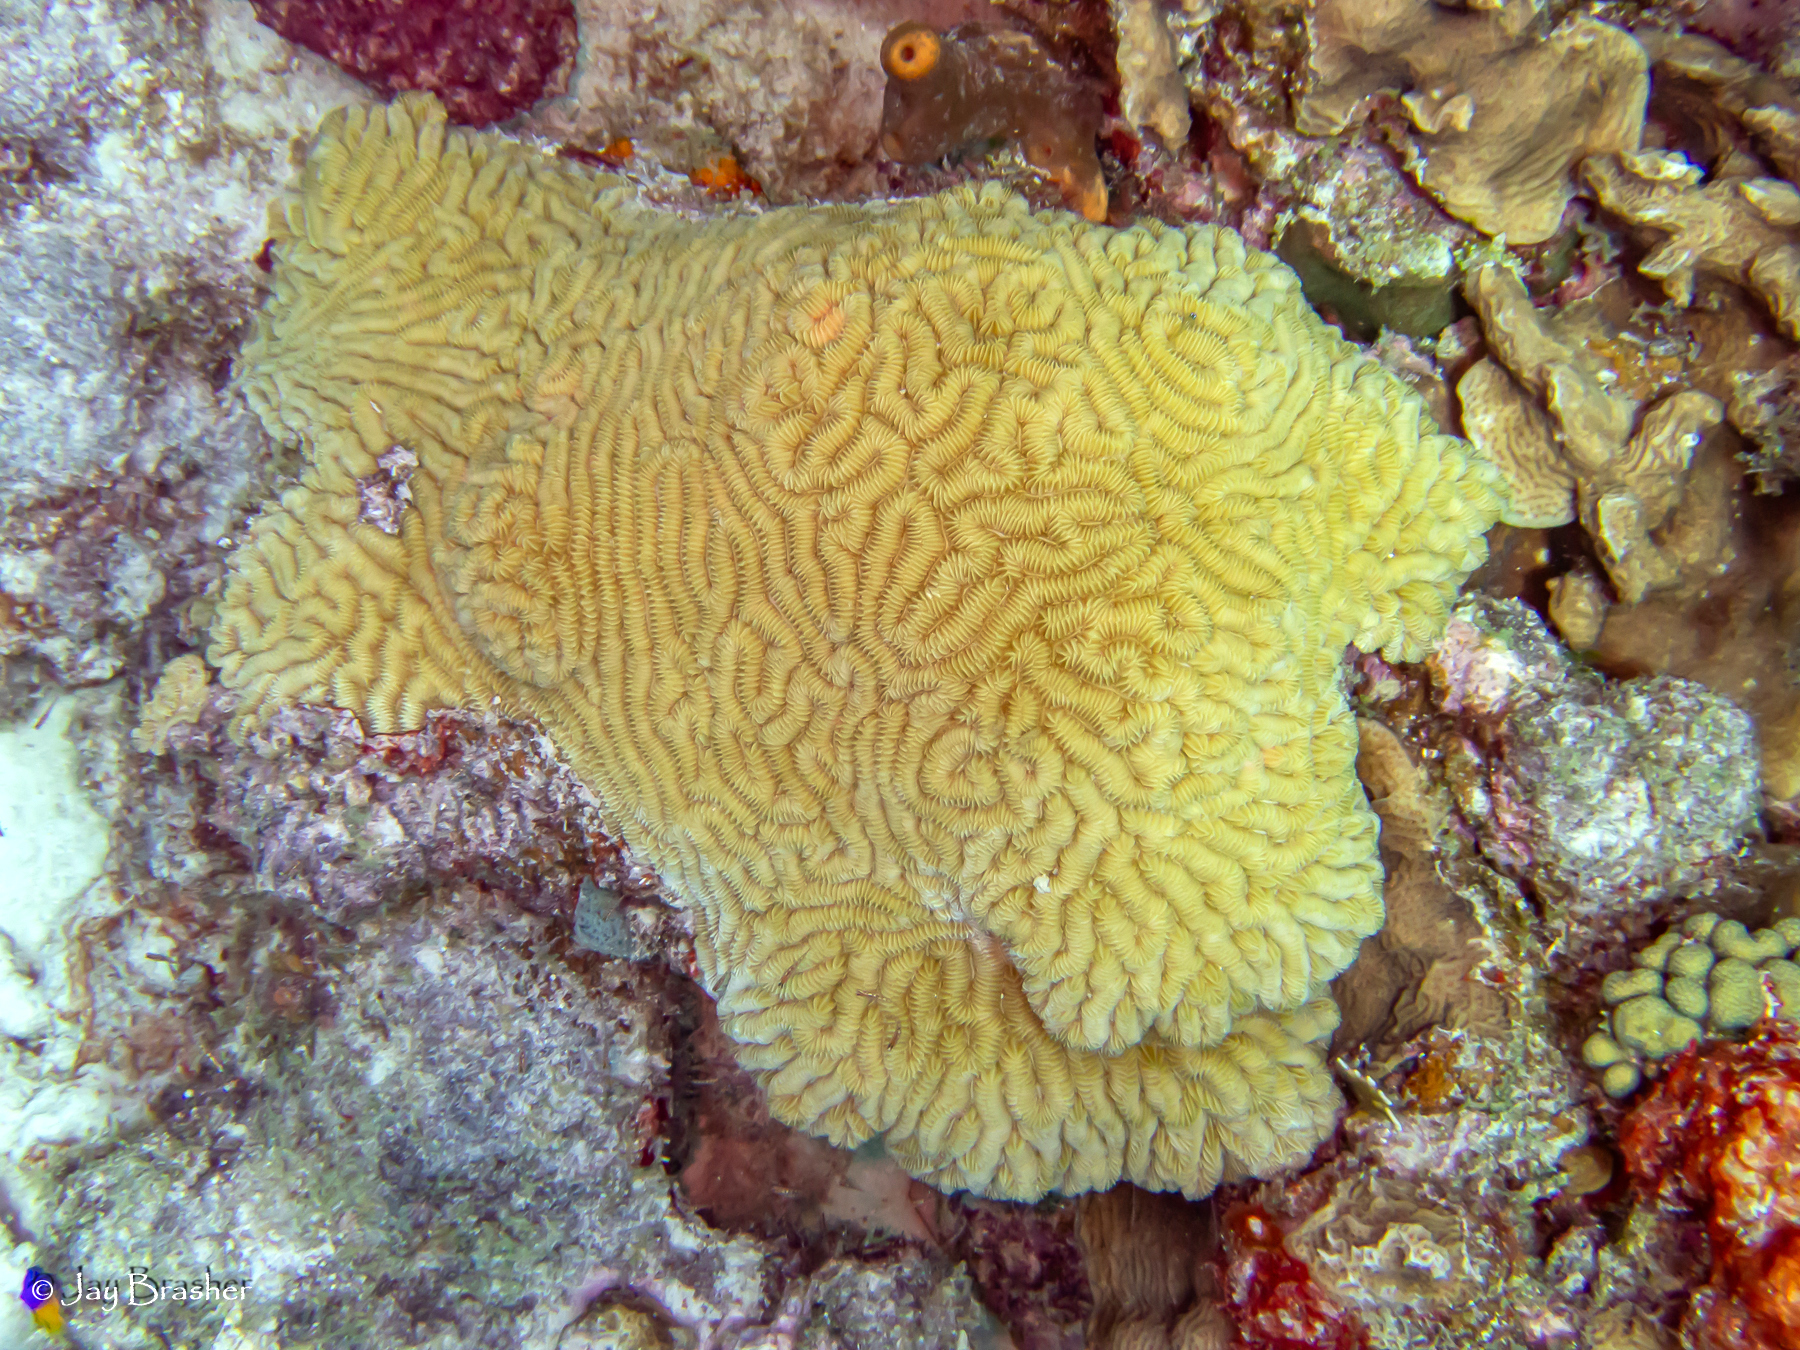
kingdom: Animalia
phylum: Cnidaria
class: Anthozoa
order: Scleractinia
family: Meandrinidae
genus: Meandrina
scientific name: Meandrina meandrites
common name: Maze coral
